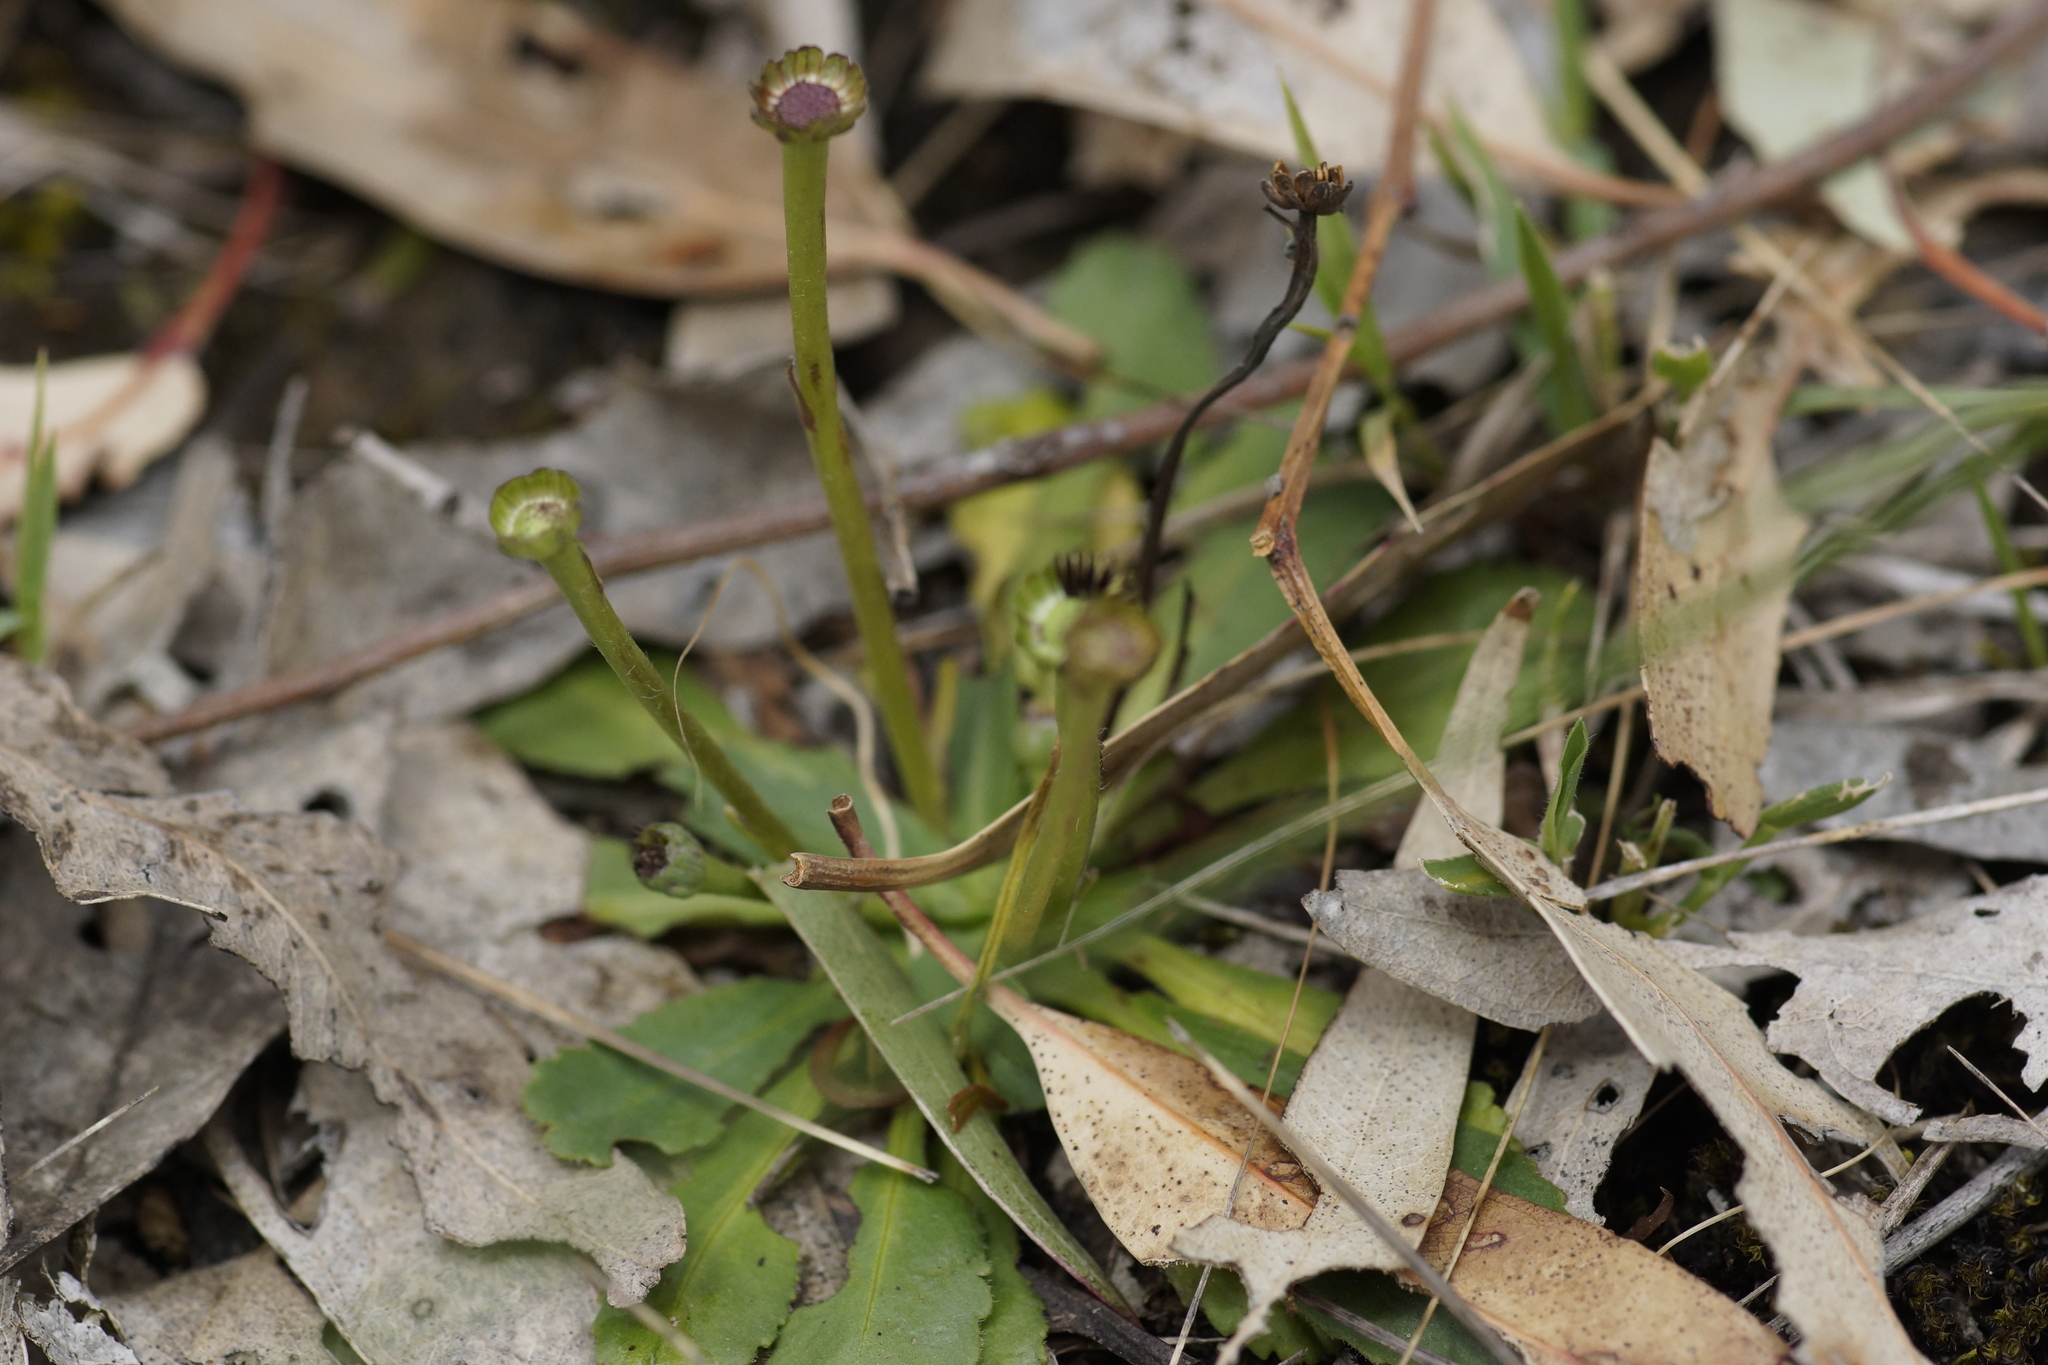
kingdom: Plantae
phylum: Tracheophyta
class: Magnoliopsida
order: Asterales
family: Asteraceae
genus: Solenogyne
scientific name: Solenogyne dominii
